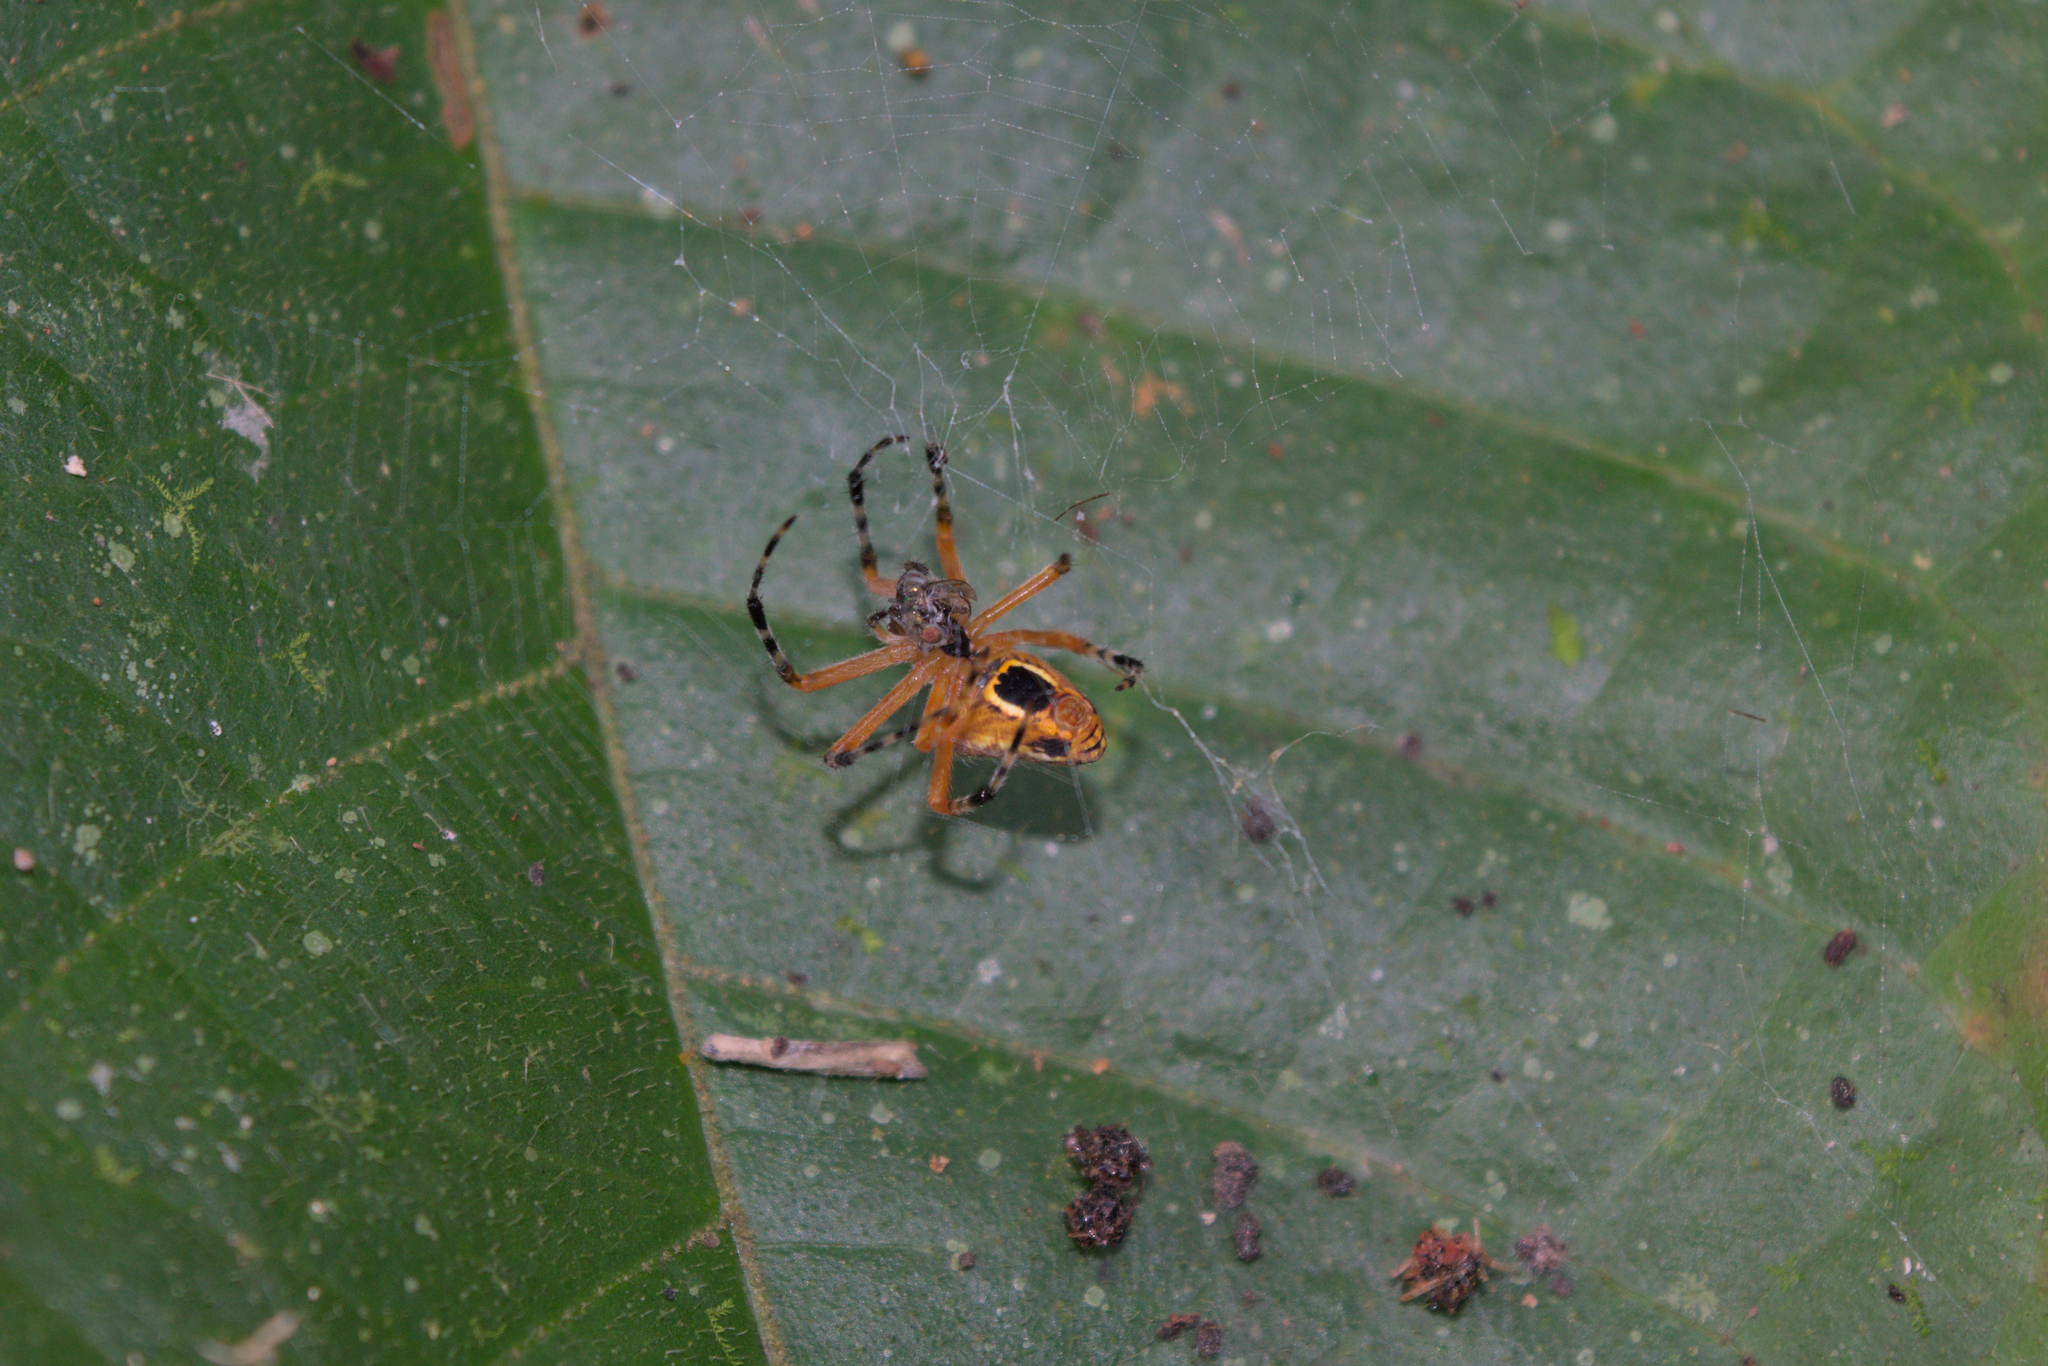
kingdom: Animalia
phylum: Arthropoda
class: Arachnida
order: Araneae
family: Araneidae
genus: Eriophora
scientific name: Eriophora nephiloides
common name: Orb weavers
